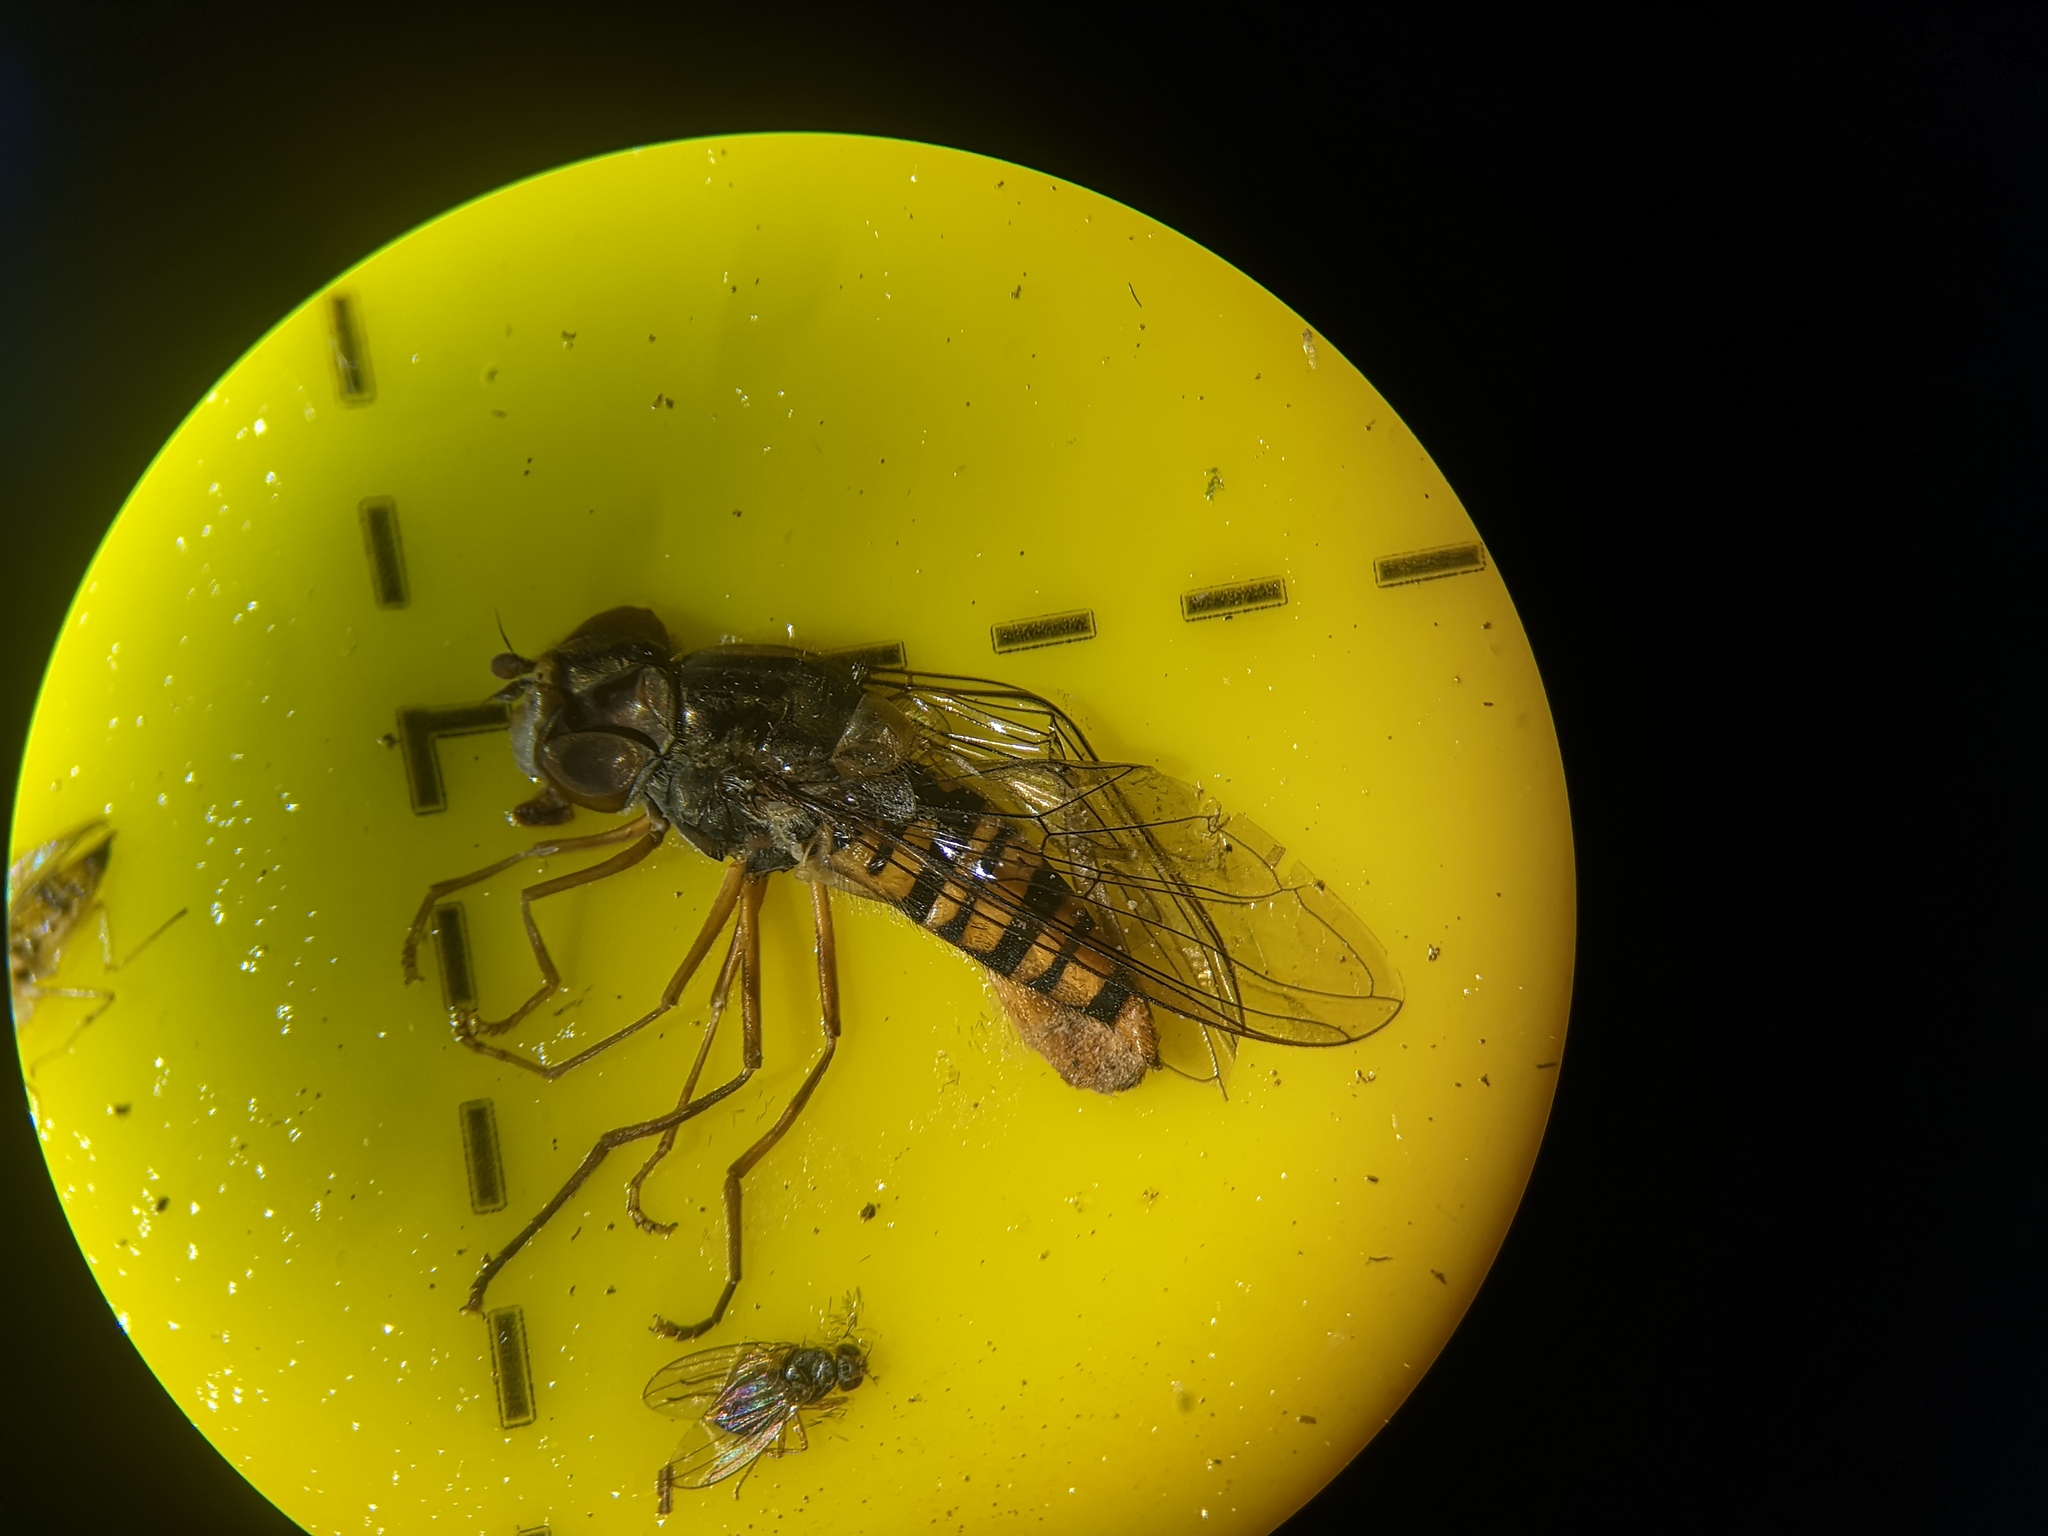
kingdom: Animalia
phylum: Arthropoda
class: Insecta
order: Diptera
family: Syrphidae
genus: Episyrphus
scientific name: Episyrphus balteatus
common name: Marmalade hoverfly
